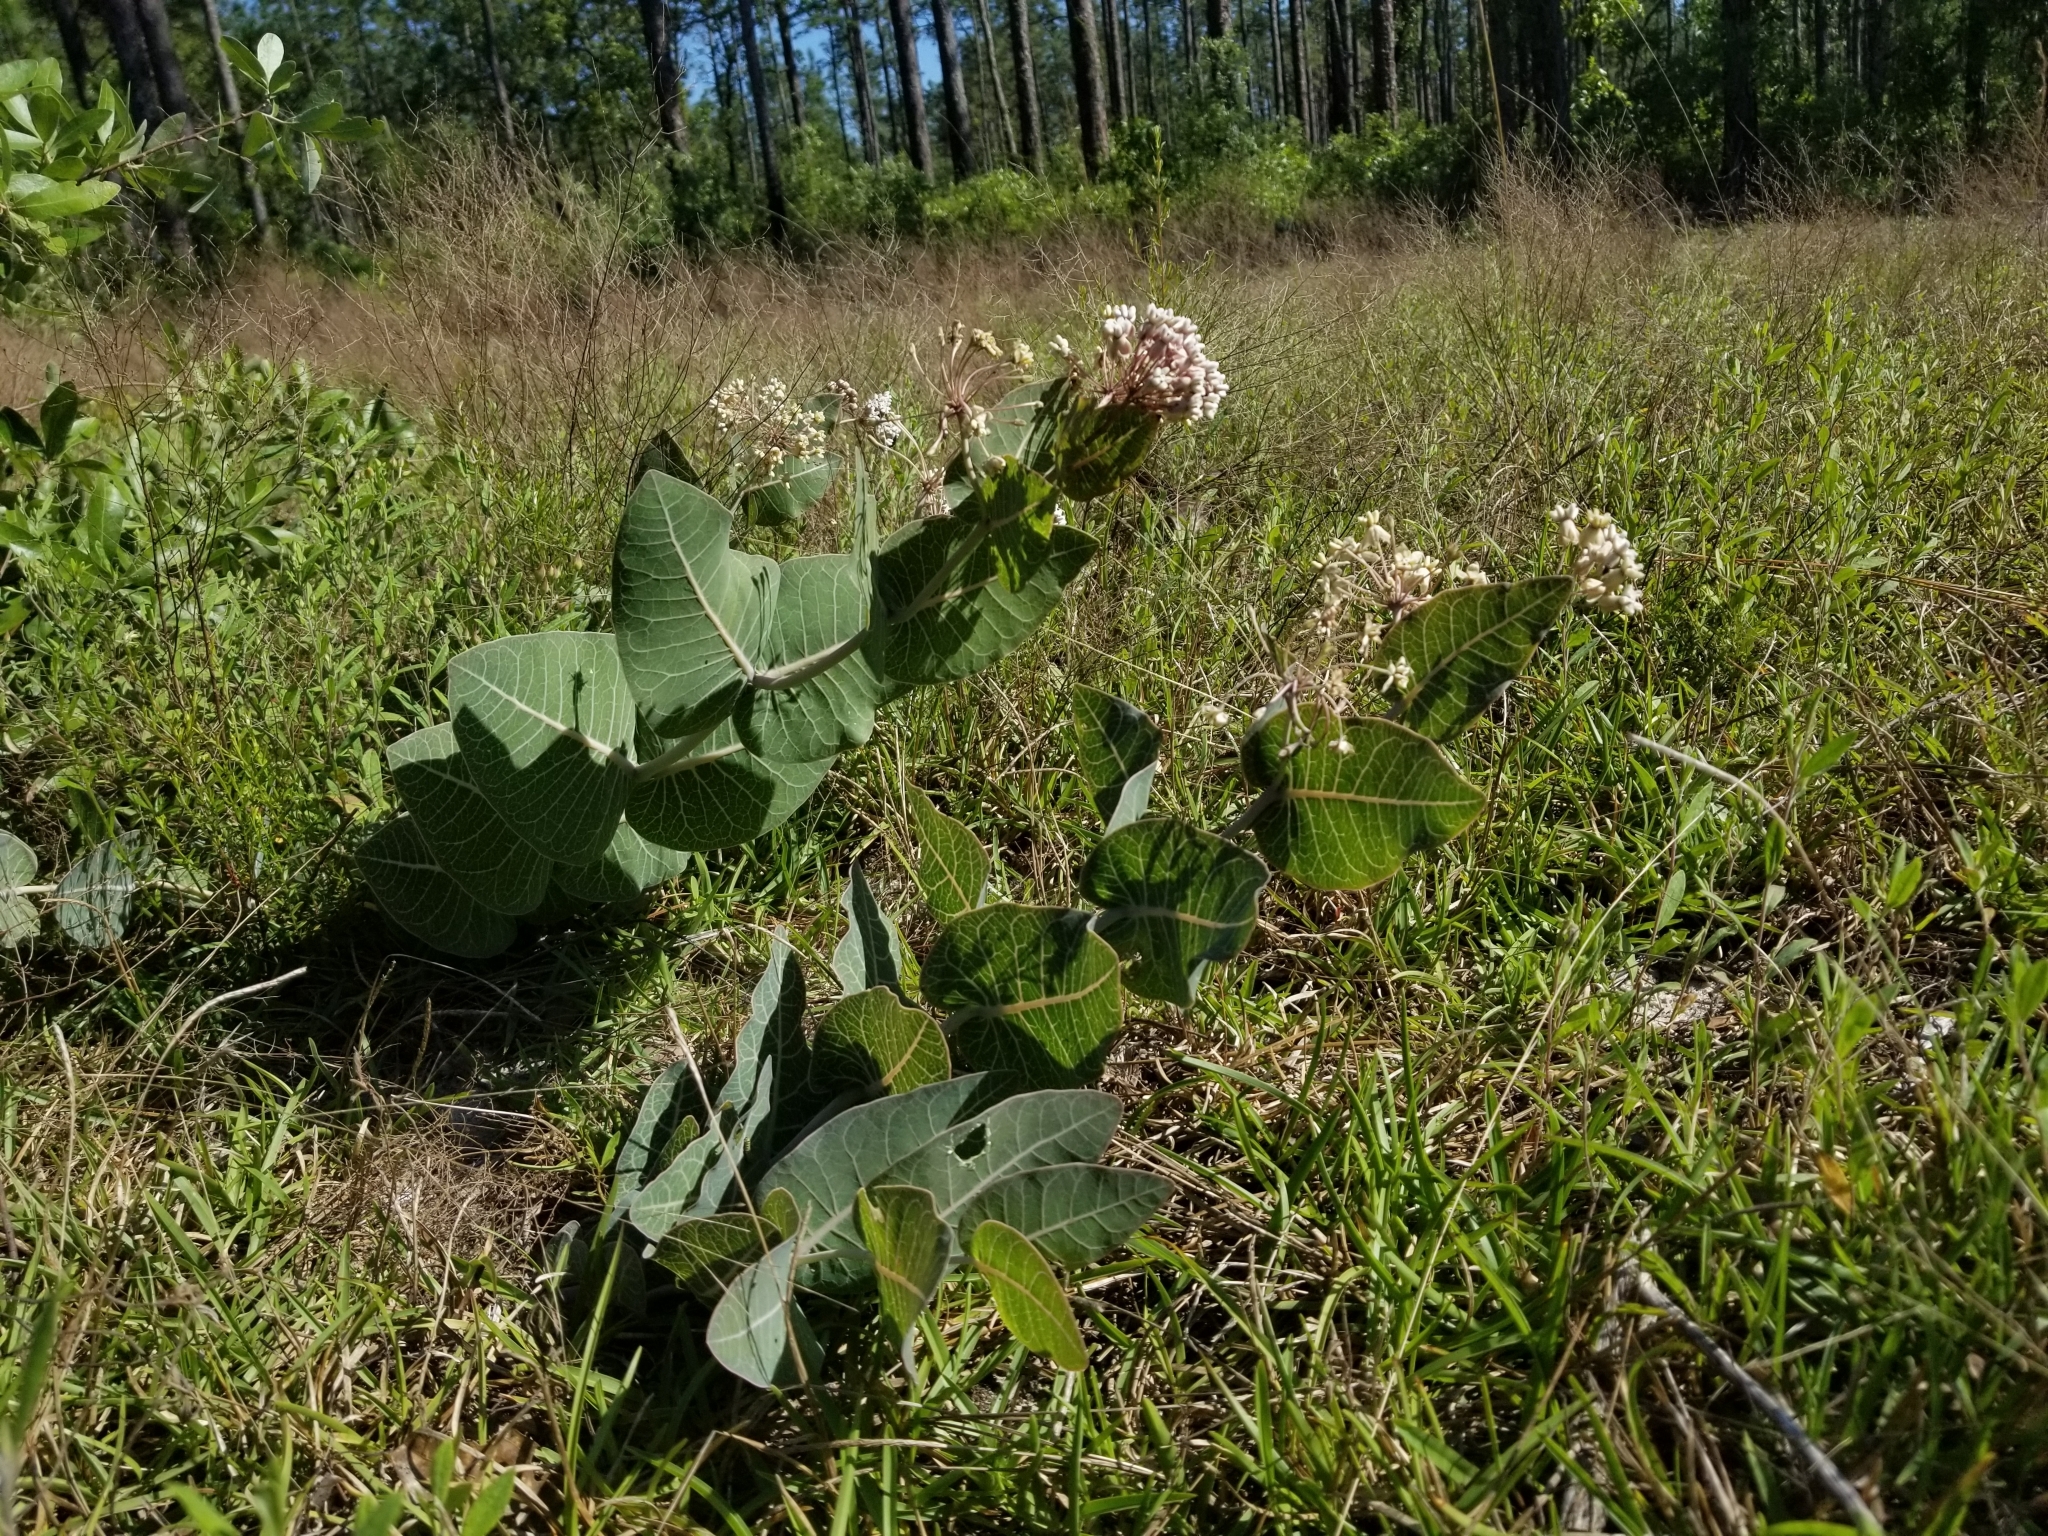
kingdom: Plantae
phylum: Tracheophyta
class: Magnoliopsida
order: Gentianales
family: Apocynaceae
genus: Asclepias
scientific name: Asclepias humistrata
